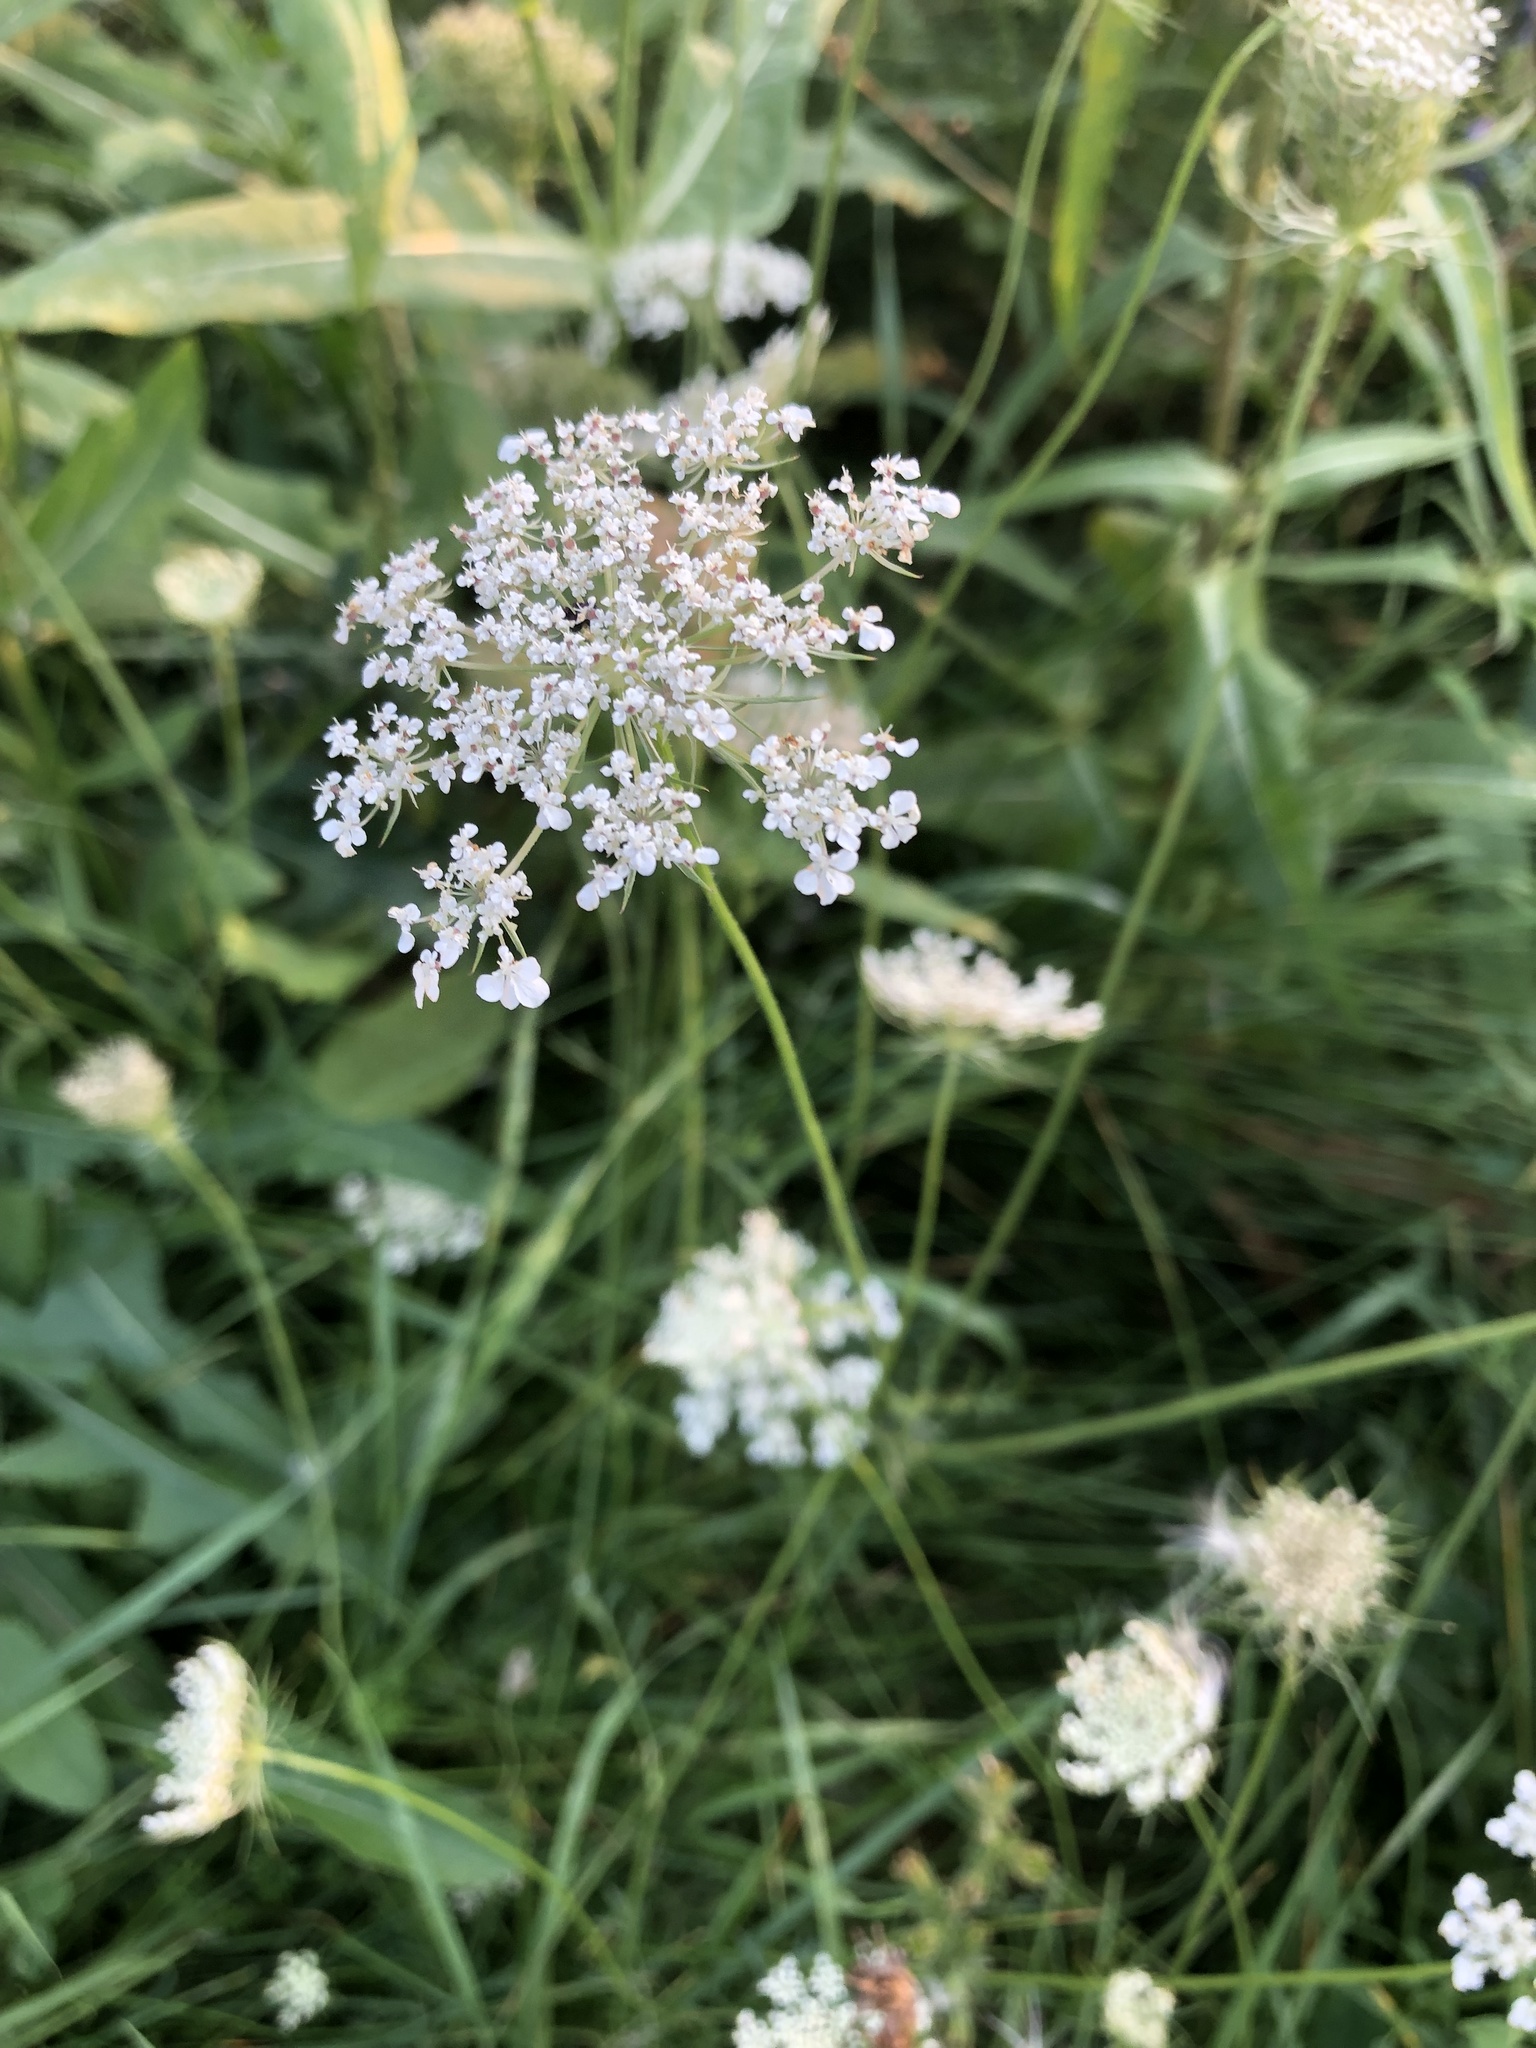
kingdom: Plantae
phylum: Tracheophyta
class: Magnoliopsida
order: Apiales
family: Apiaceae
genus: Daucus
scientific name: Daucus carota
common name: Wild carrot
